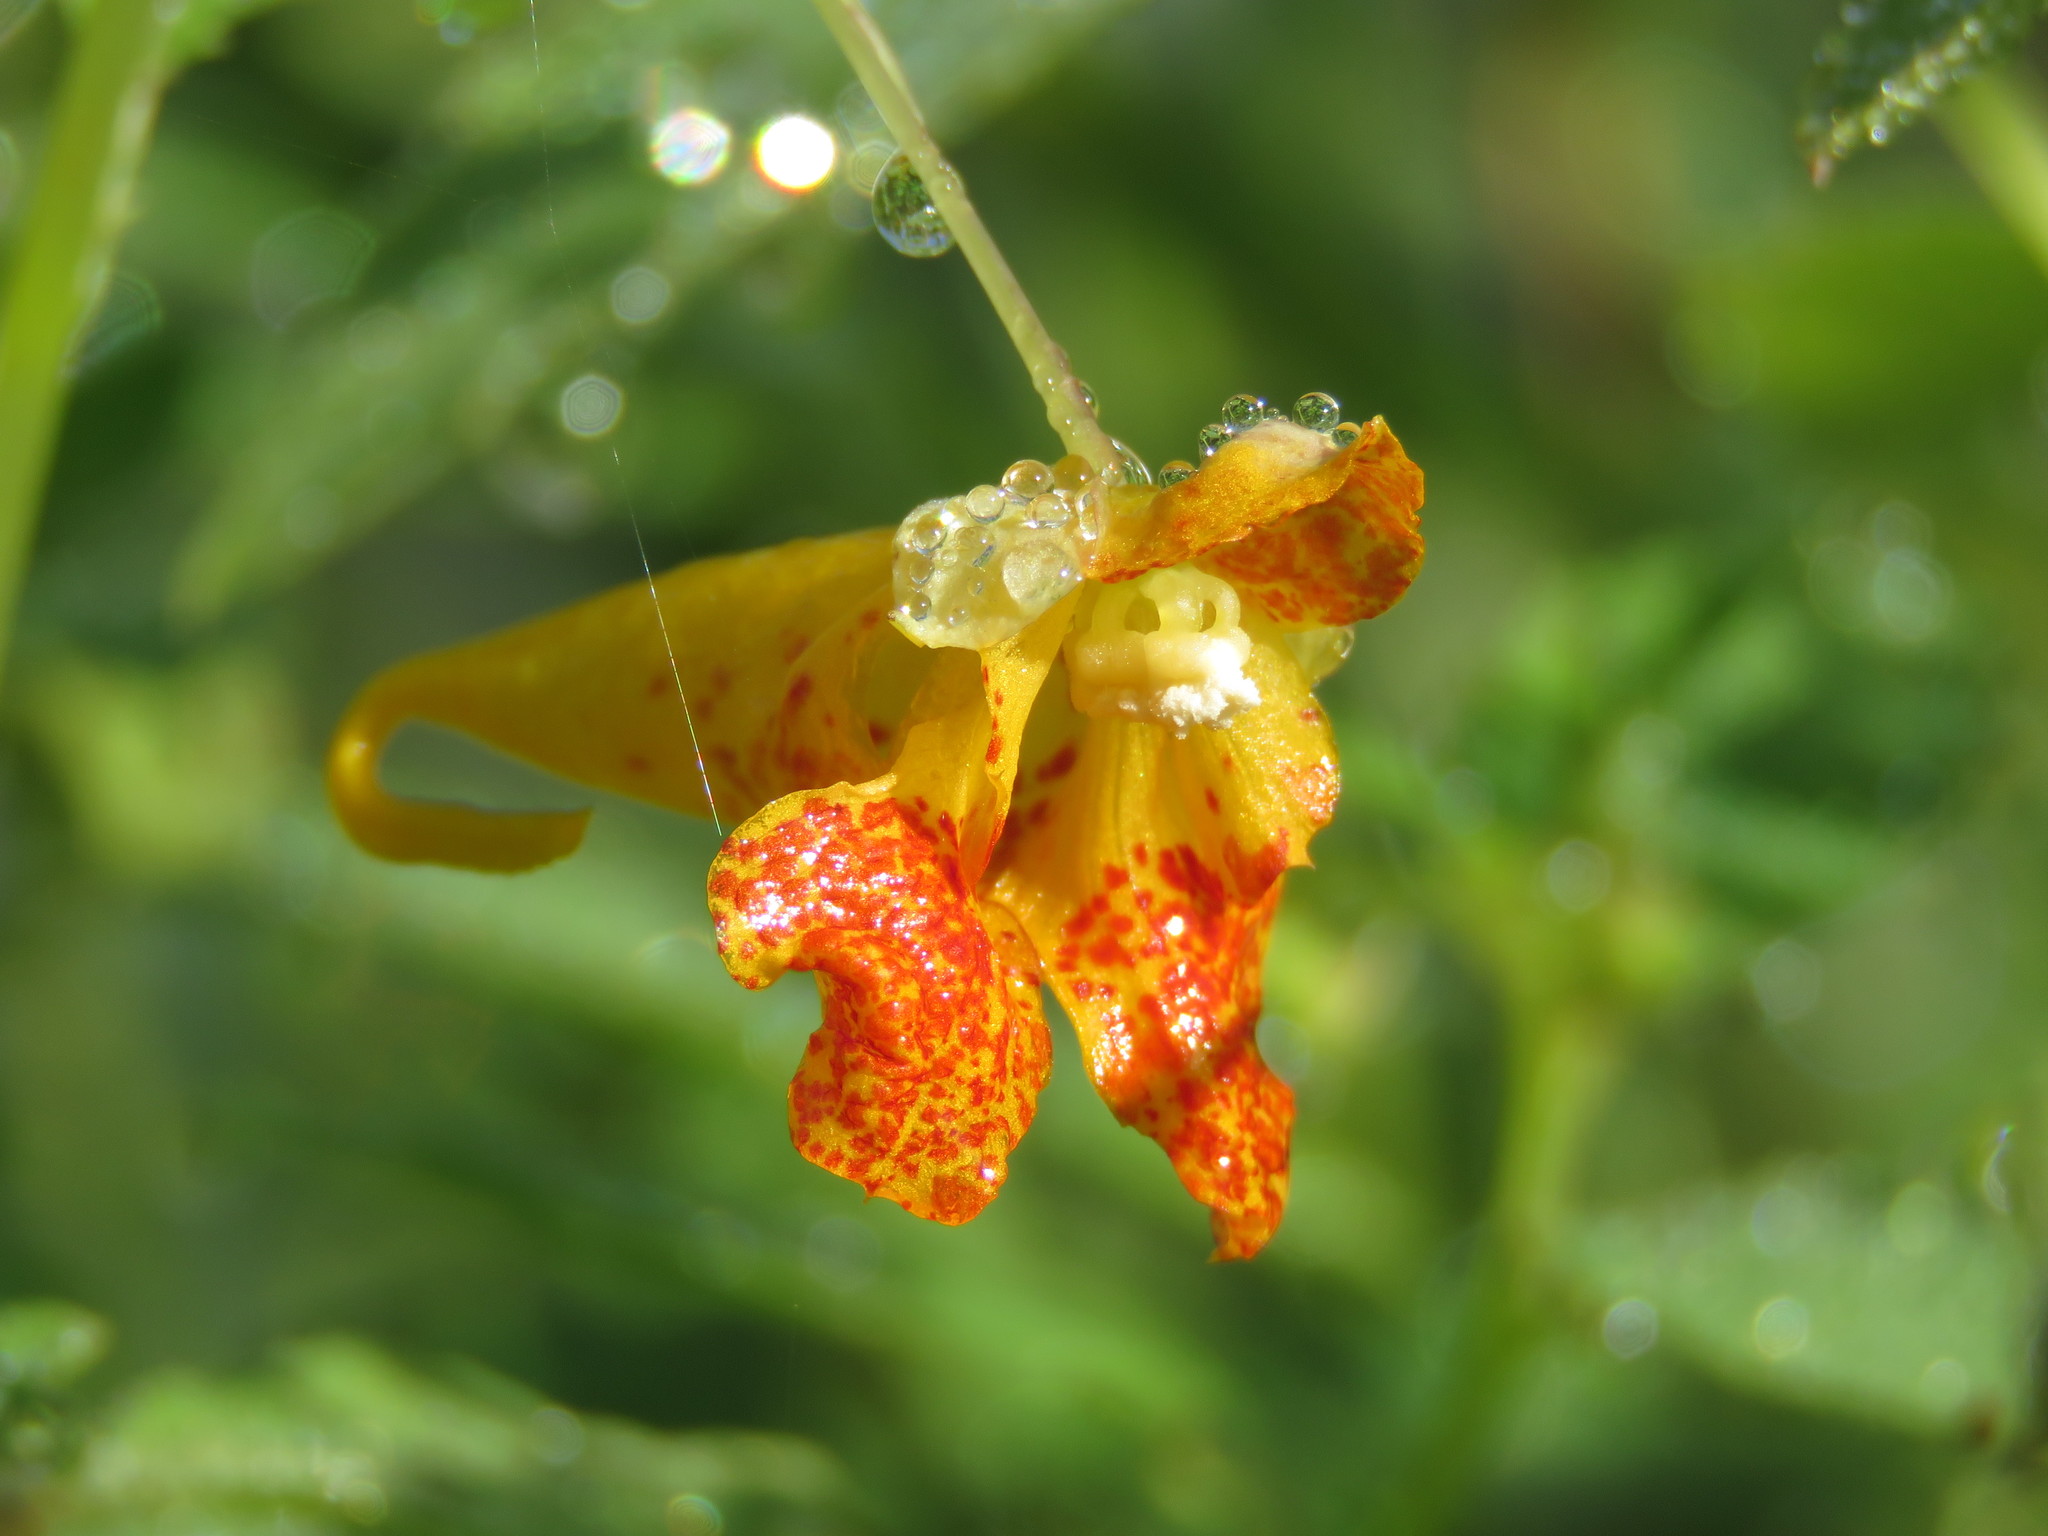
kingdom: Plantae
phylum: Tracheophyta
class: Magnoliopsida
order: Ericales
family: Balsaminaceae
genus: Impatiens
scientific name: Impatiens capensis
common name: Orange balsam
